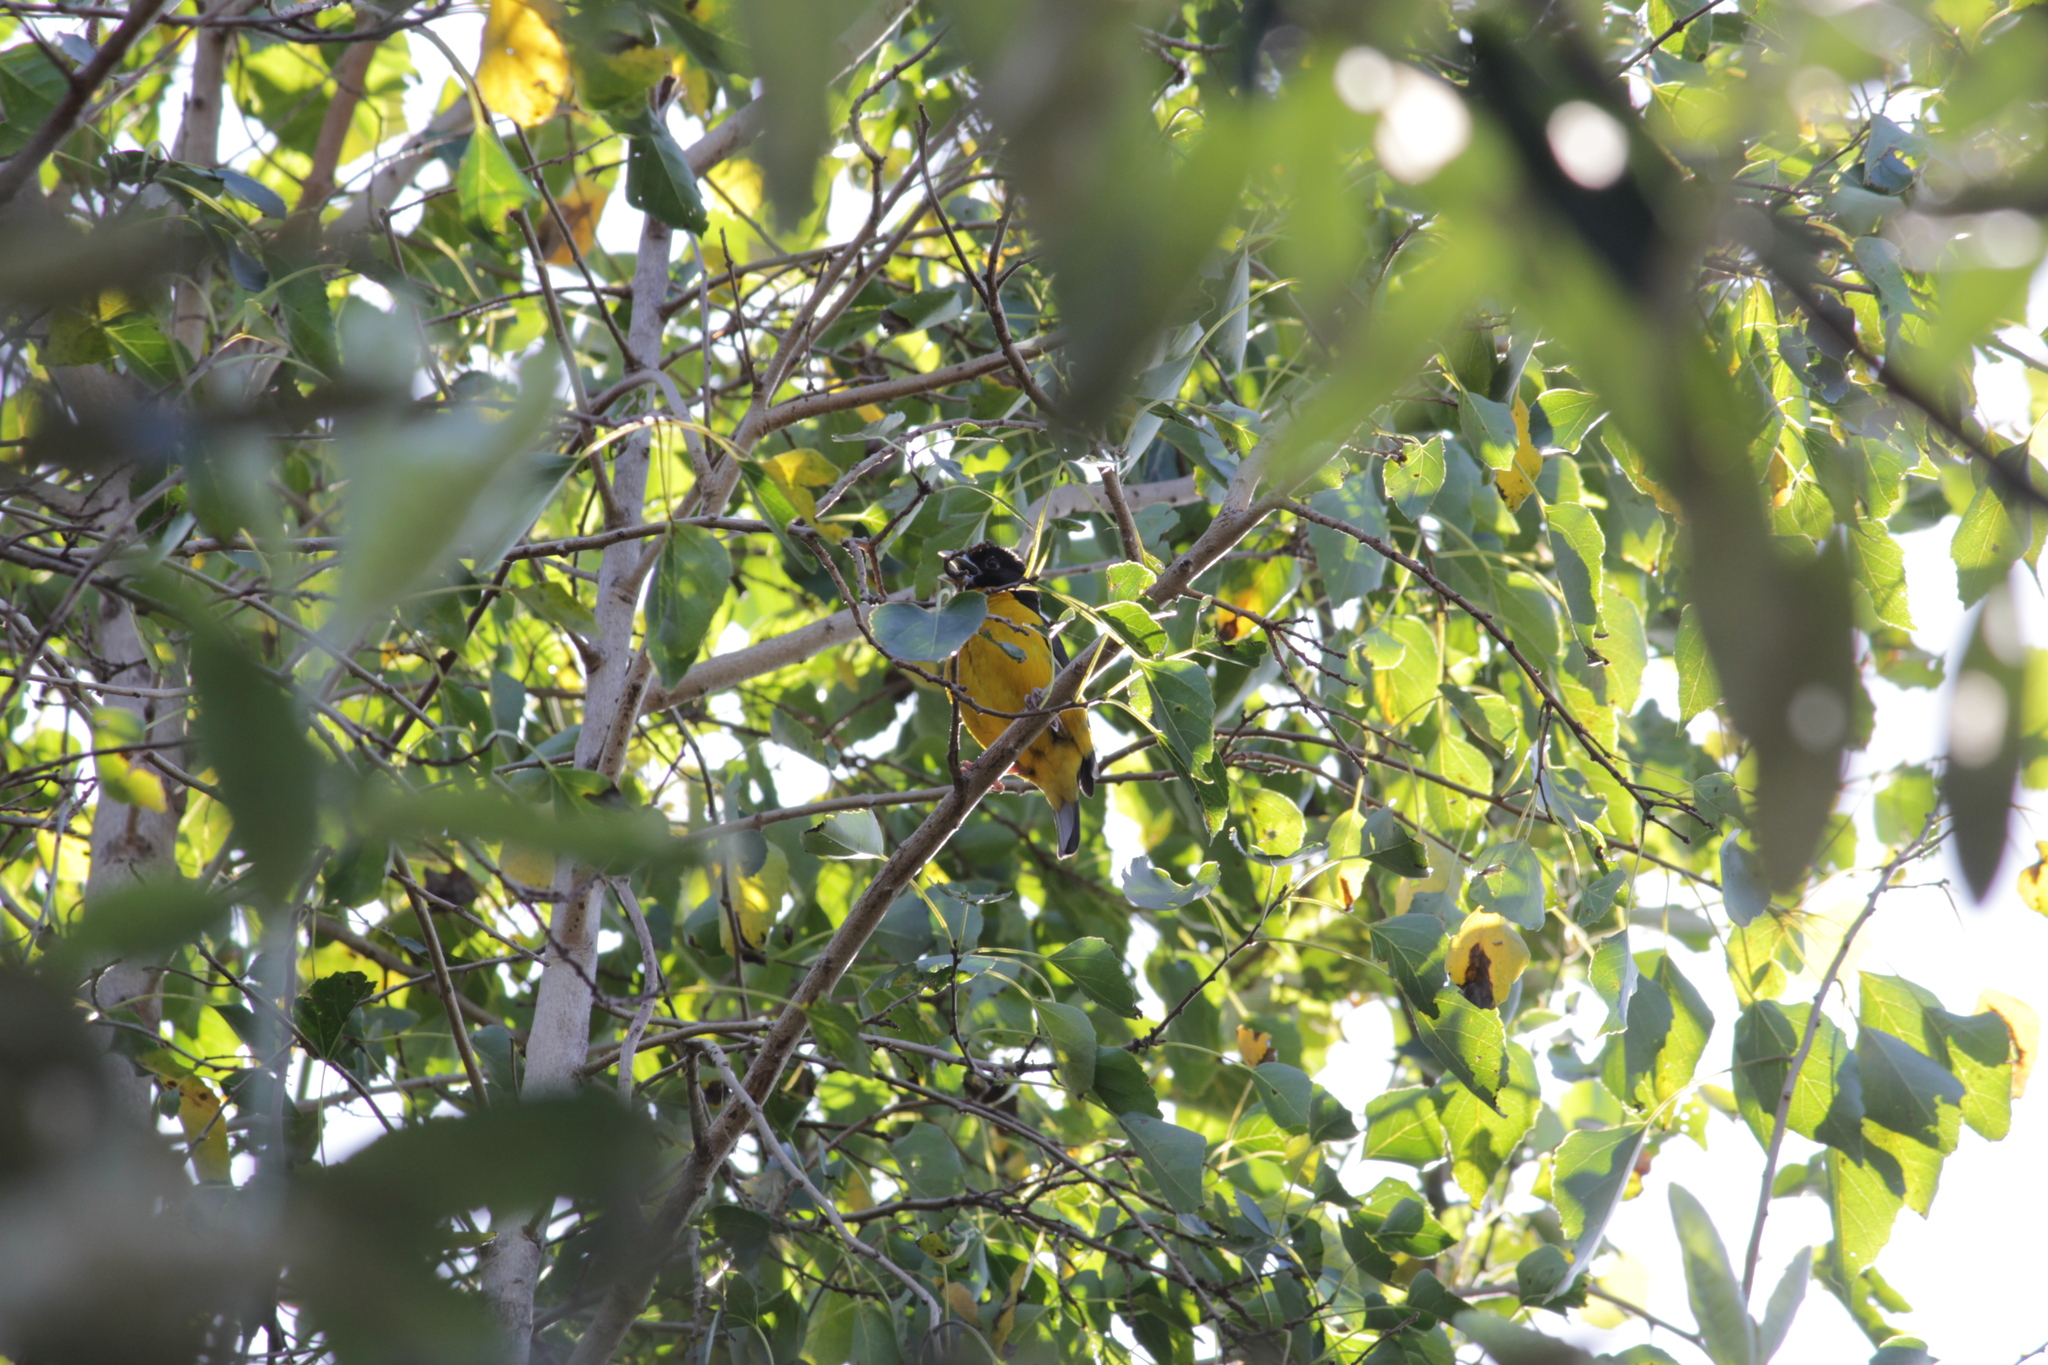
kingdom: Animalia
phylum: Chordata
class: Aves
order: Passeriformes
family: Ploceidae
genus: Ploceus
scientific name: Ploceus bicolor
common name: Dark-backed weaver
